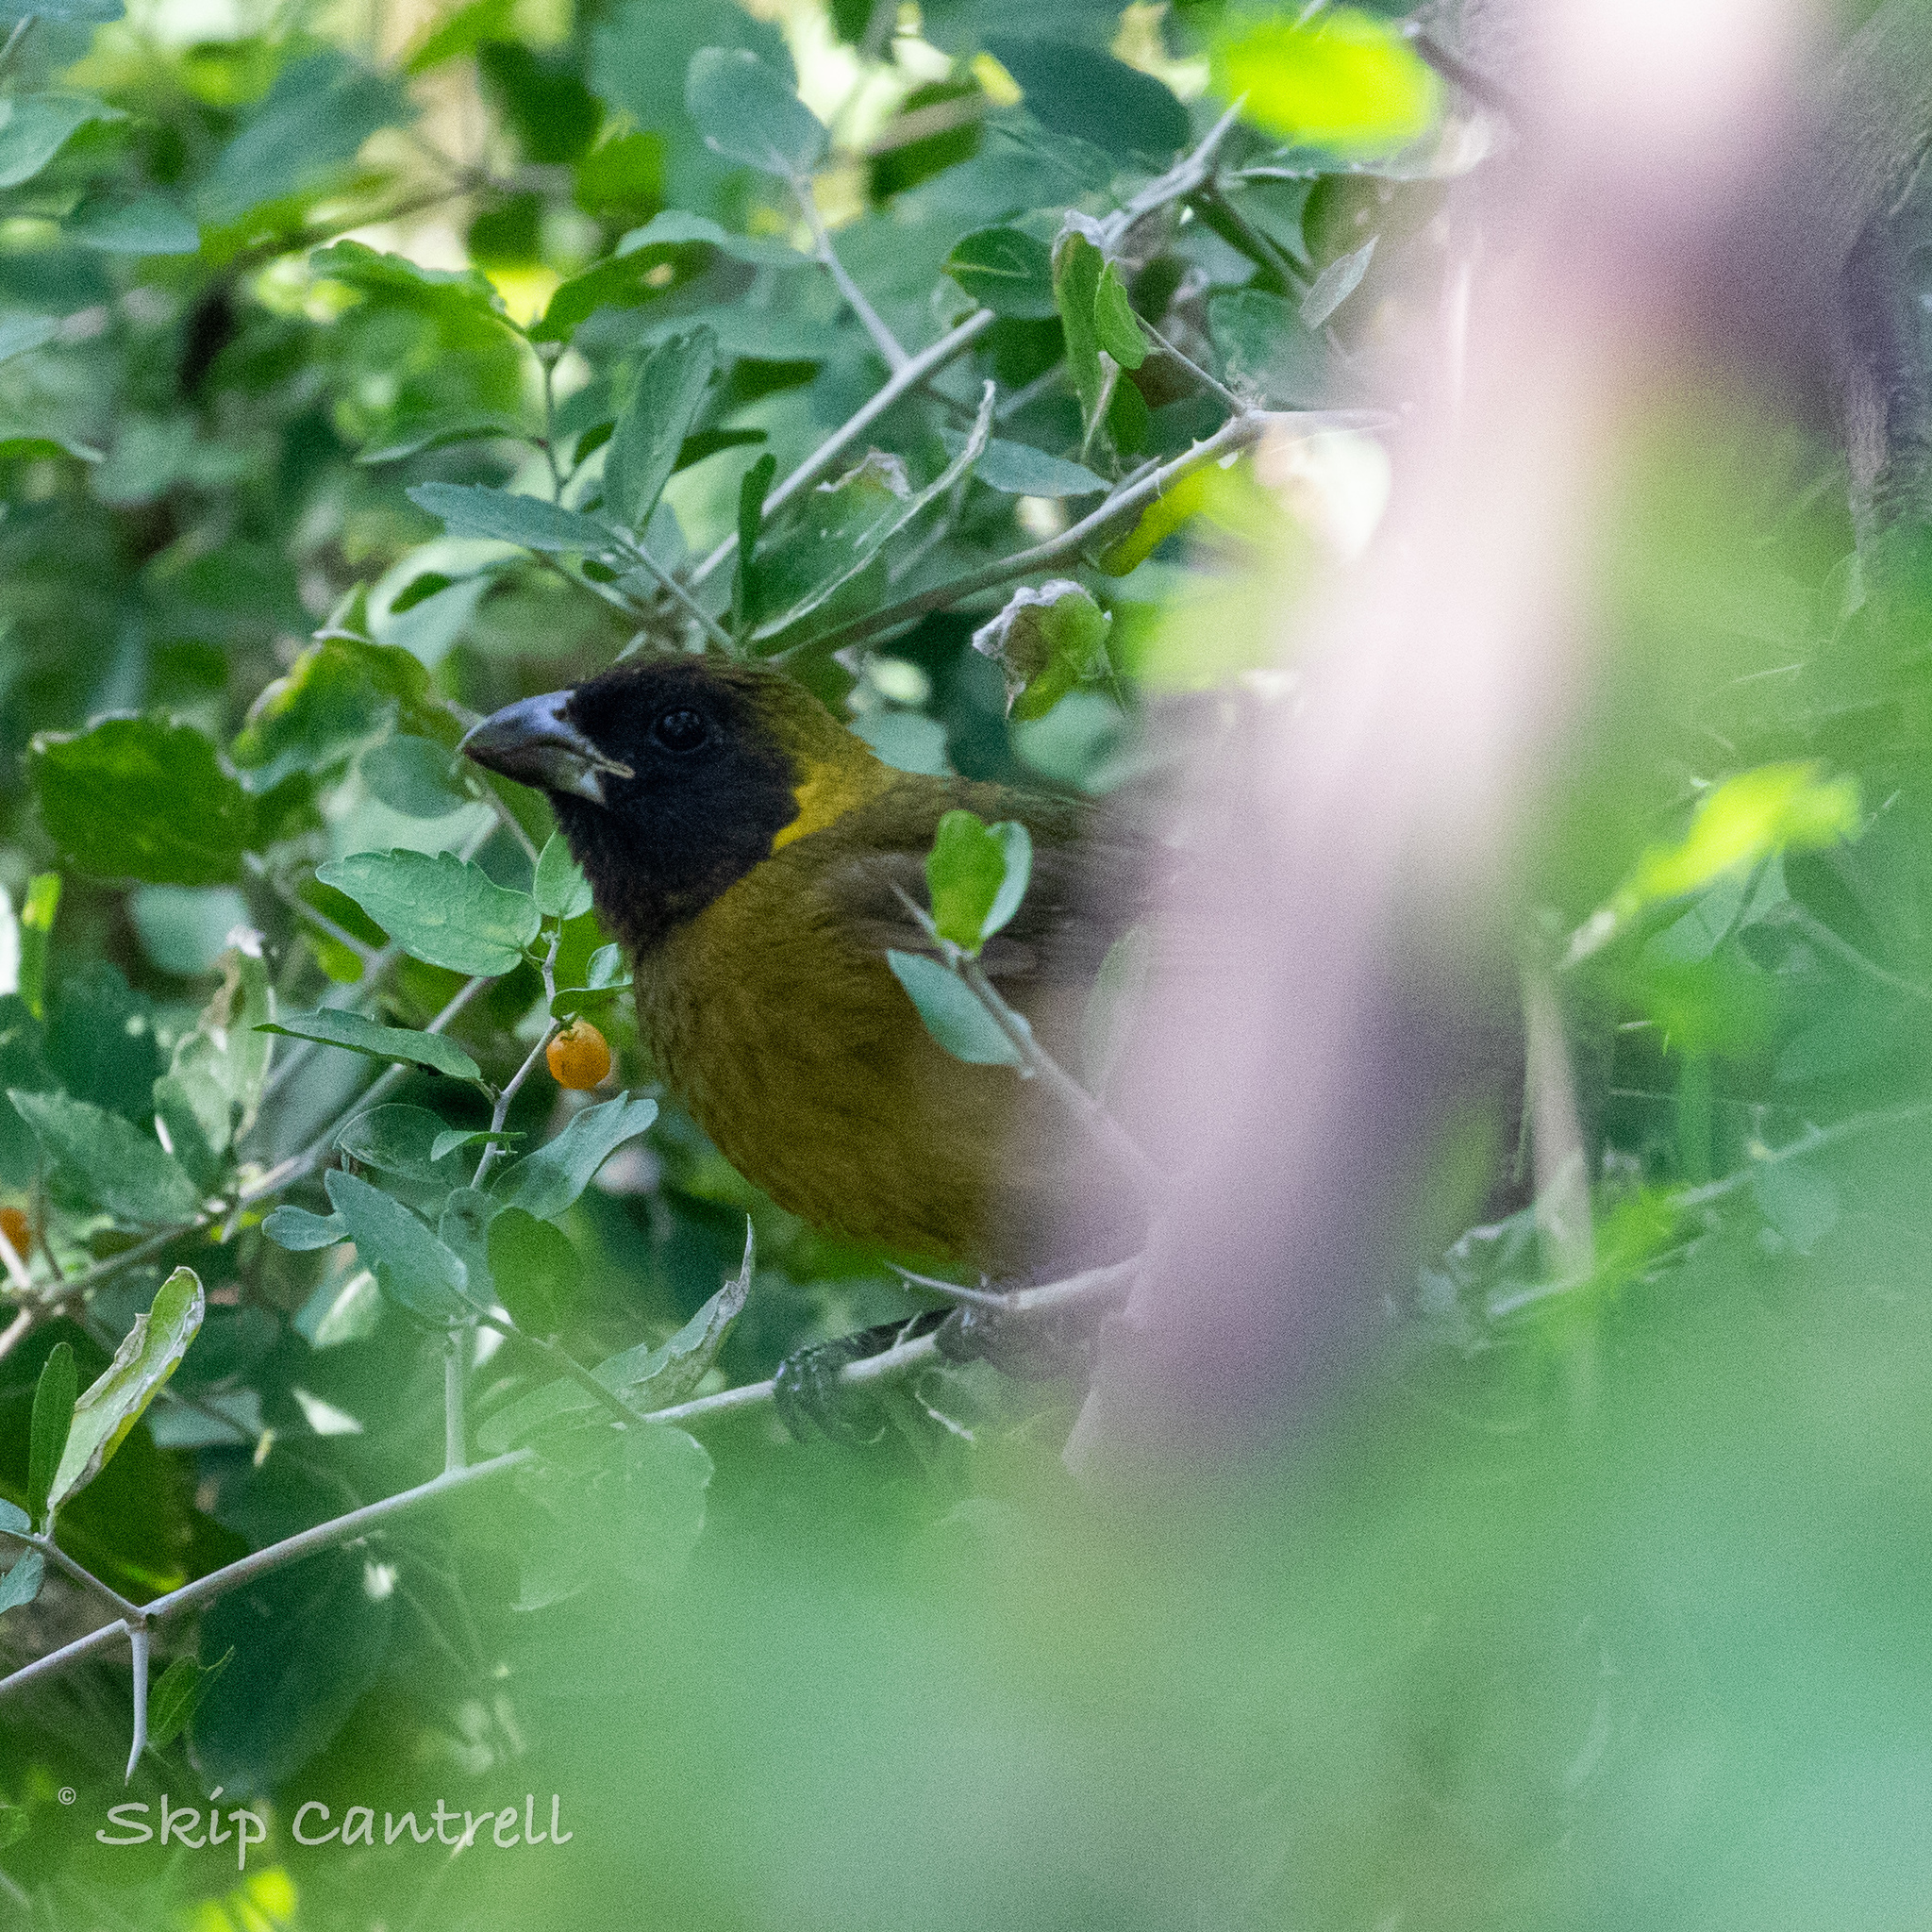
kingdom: Animalia
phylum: Chordata
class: Aves
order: Passeriformes
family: Cardinalidae
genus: Rhodothraupis
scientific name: Rhodothraupis celaeno
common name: Crimson-collared grosbeak
